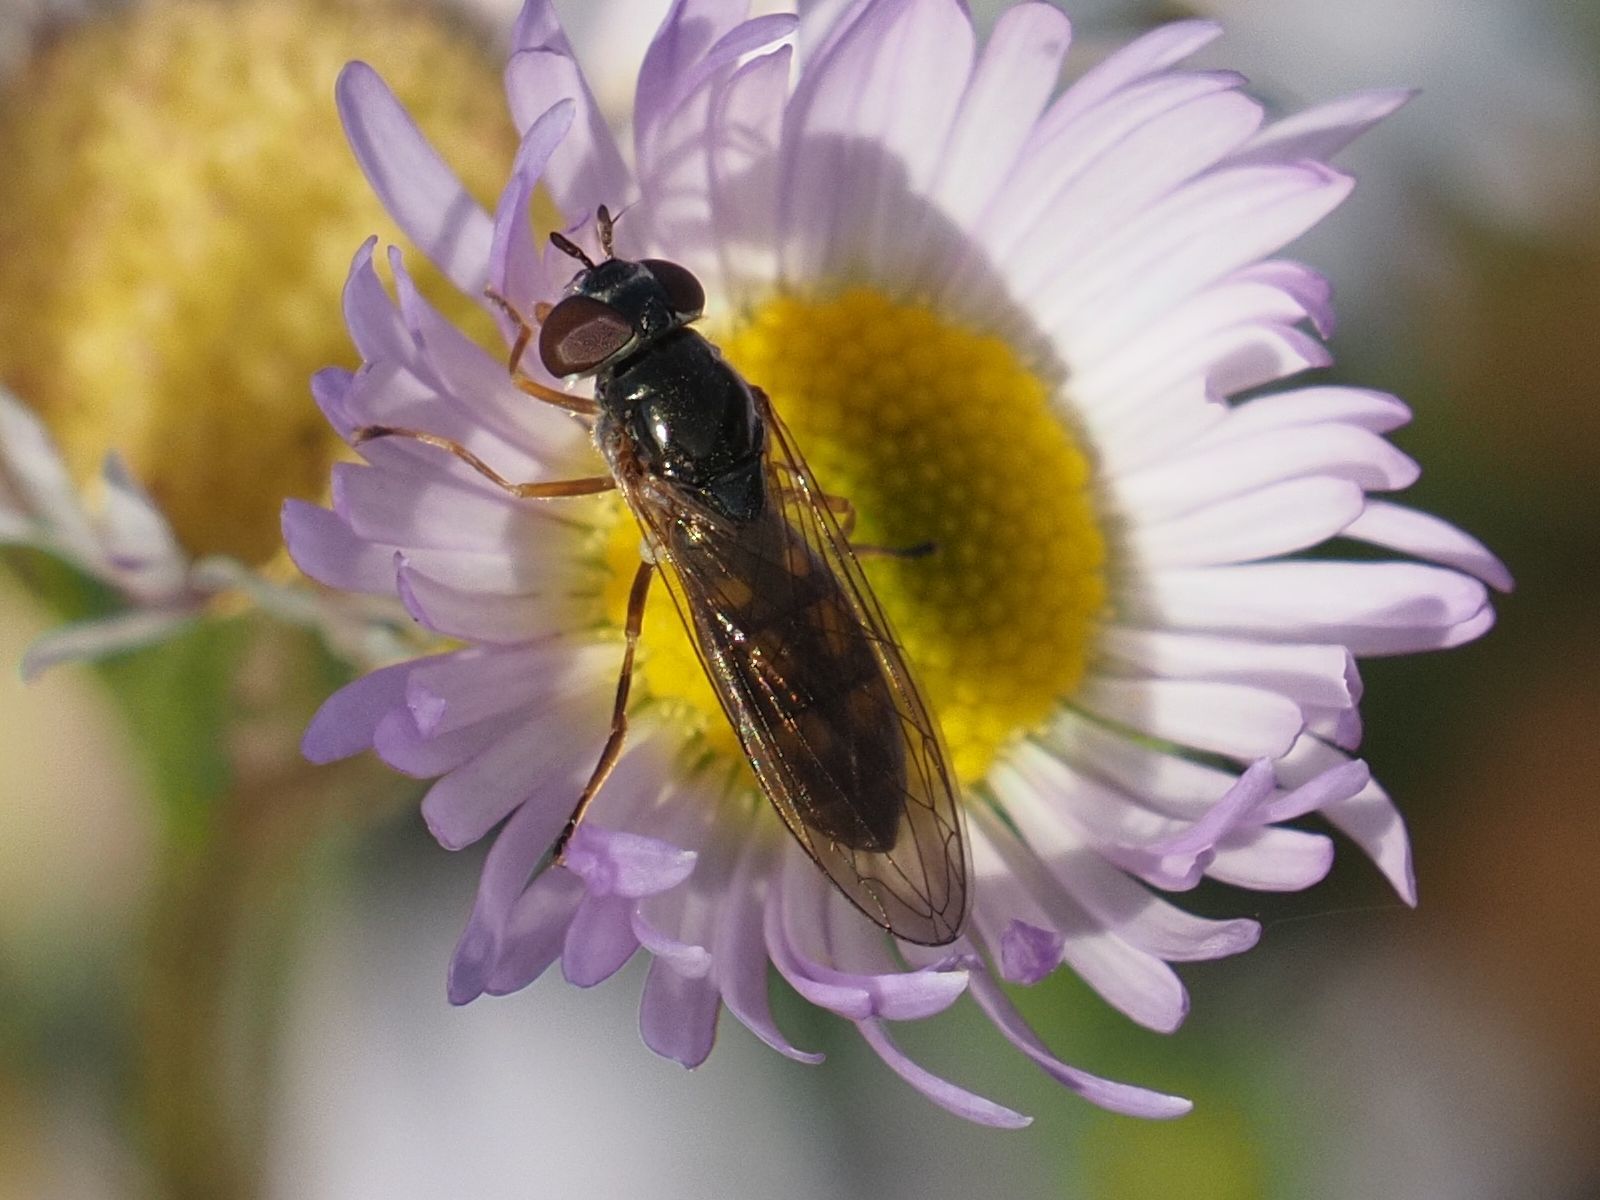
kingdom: Animalia
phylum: Arthropoda
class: Insecta
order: Diptera
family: Syrphidae
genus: Melanostoma
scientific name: Melanostoma scalare
